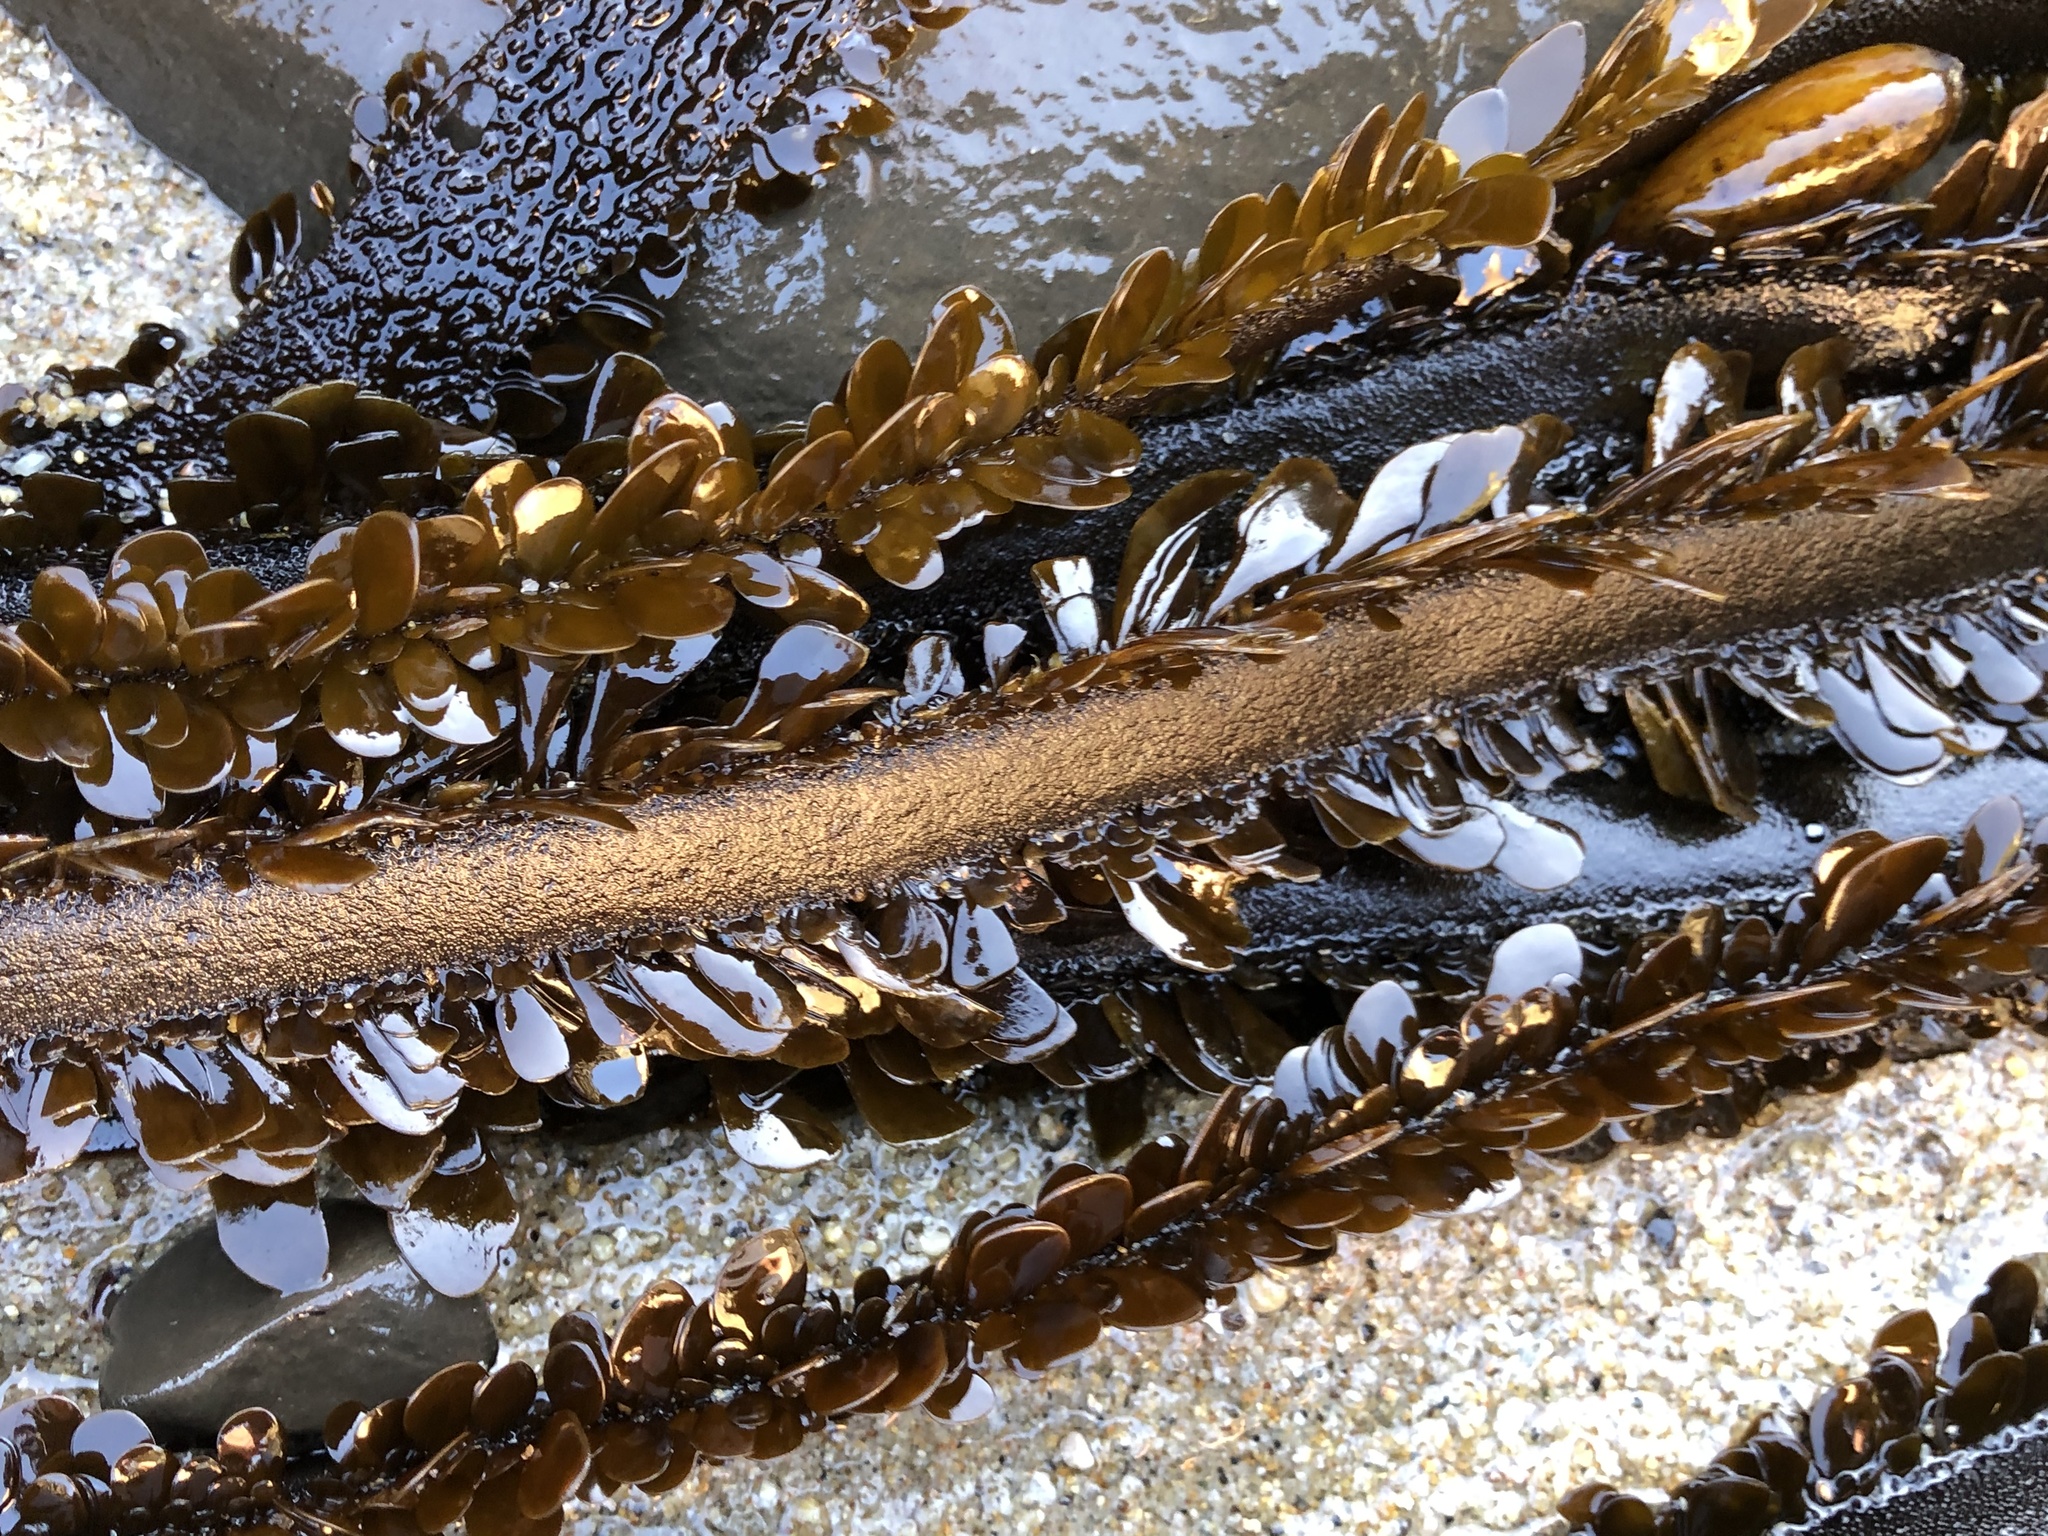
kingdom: Chromista
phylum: Ochrophyta
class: Phaeophyceae
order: Laminariales
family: Lessoniaceae
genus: Egregia
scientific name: Egregia menziesii
